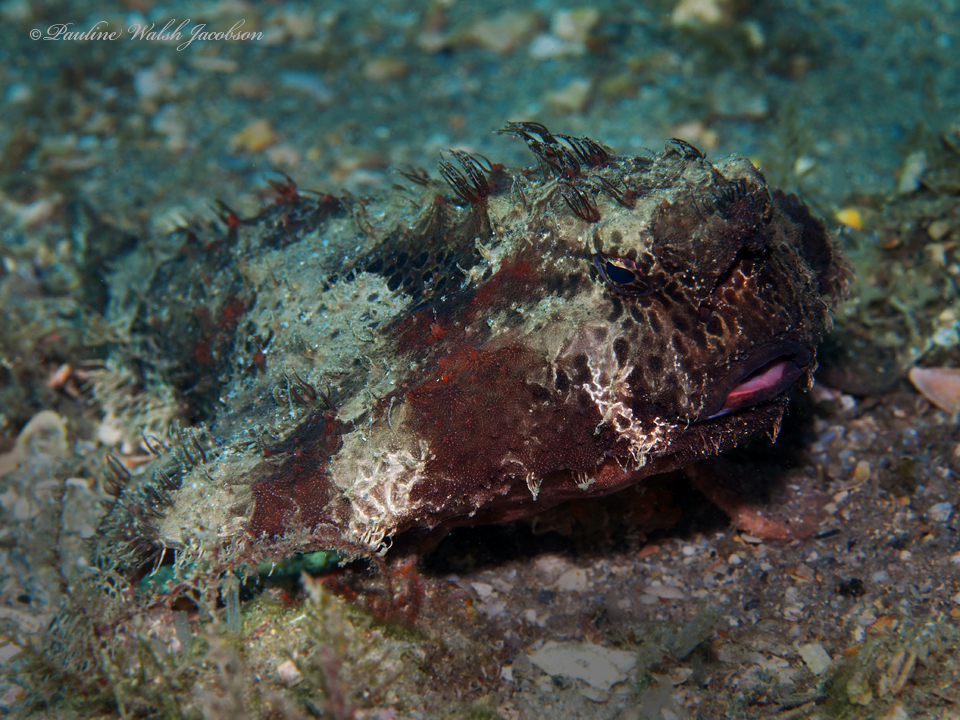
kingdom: Animalia
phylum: Chordata
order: Lophiiformes
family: Ogcocephalidae
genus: Ogcocephalus
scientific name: Ogcocephalus cubifrons
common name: Polka-dot batfish
